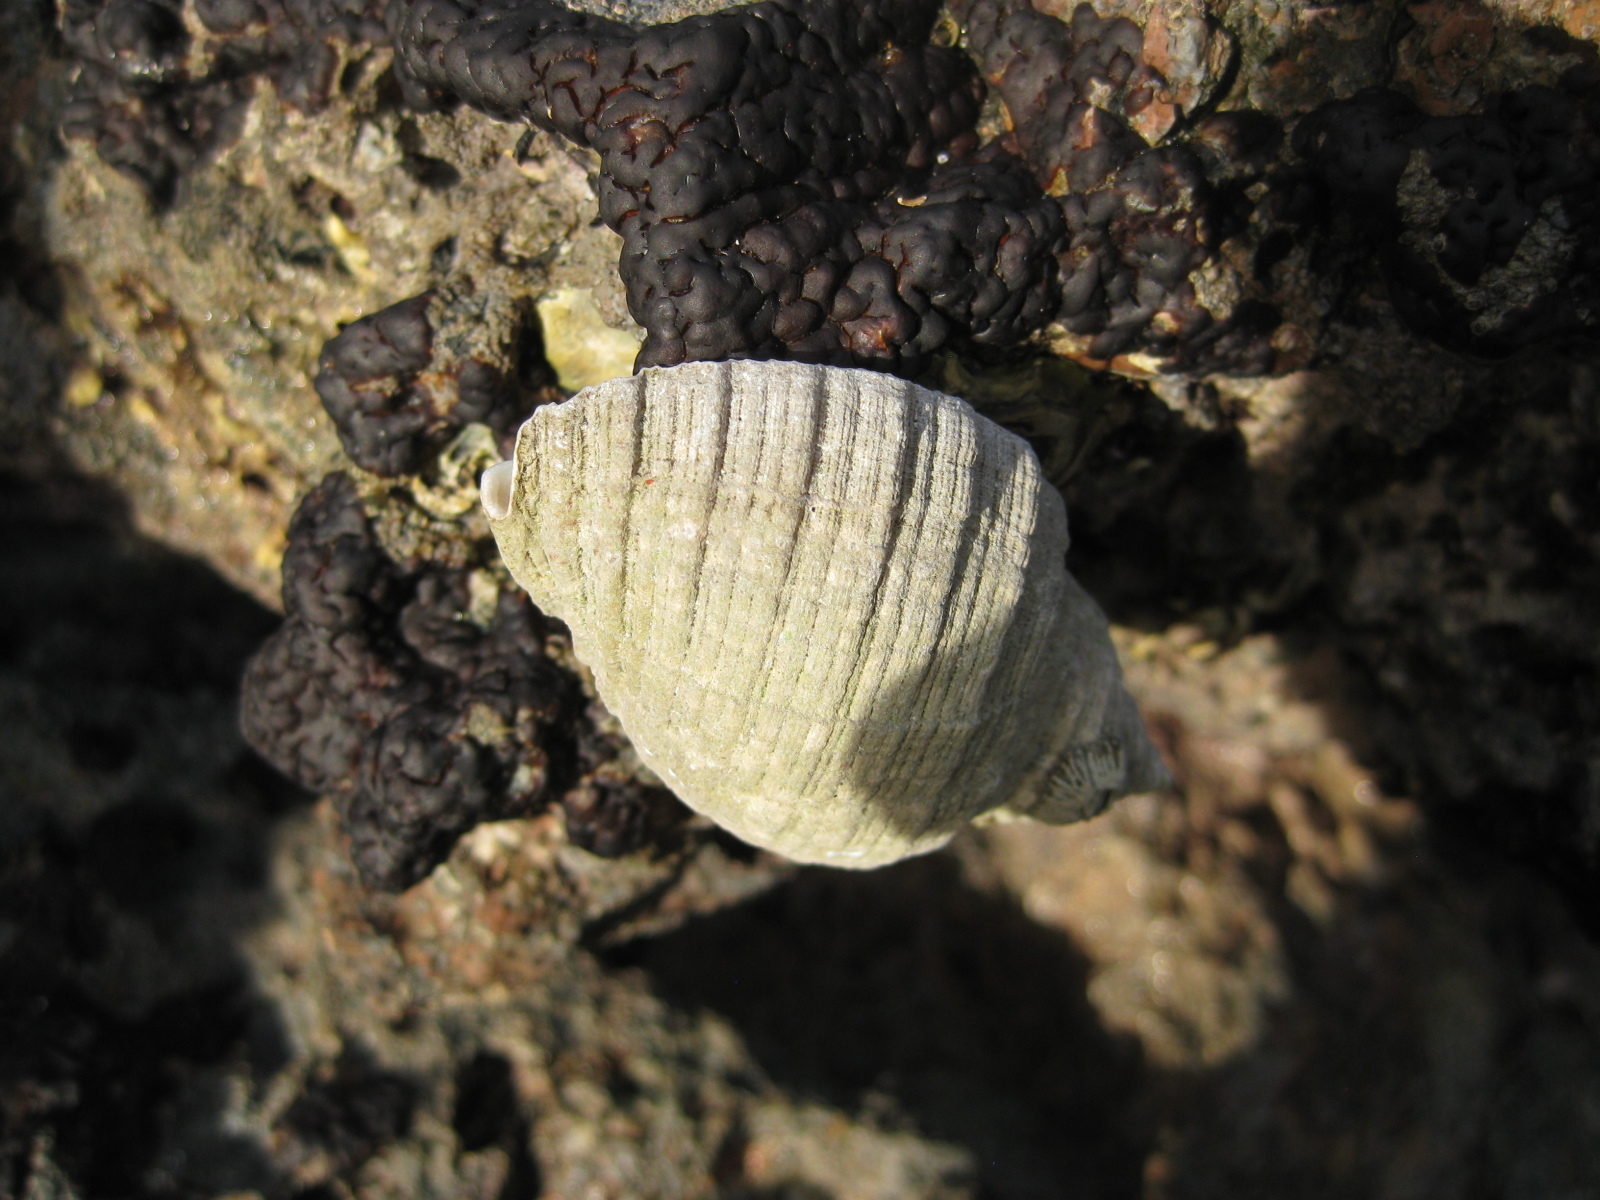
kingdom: Animalia
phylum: Mollusca
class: Gastropoda
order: Neogastropoda
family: Muricidae
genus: Dicathais
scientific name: Dicathais orbita
